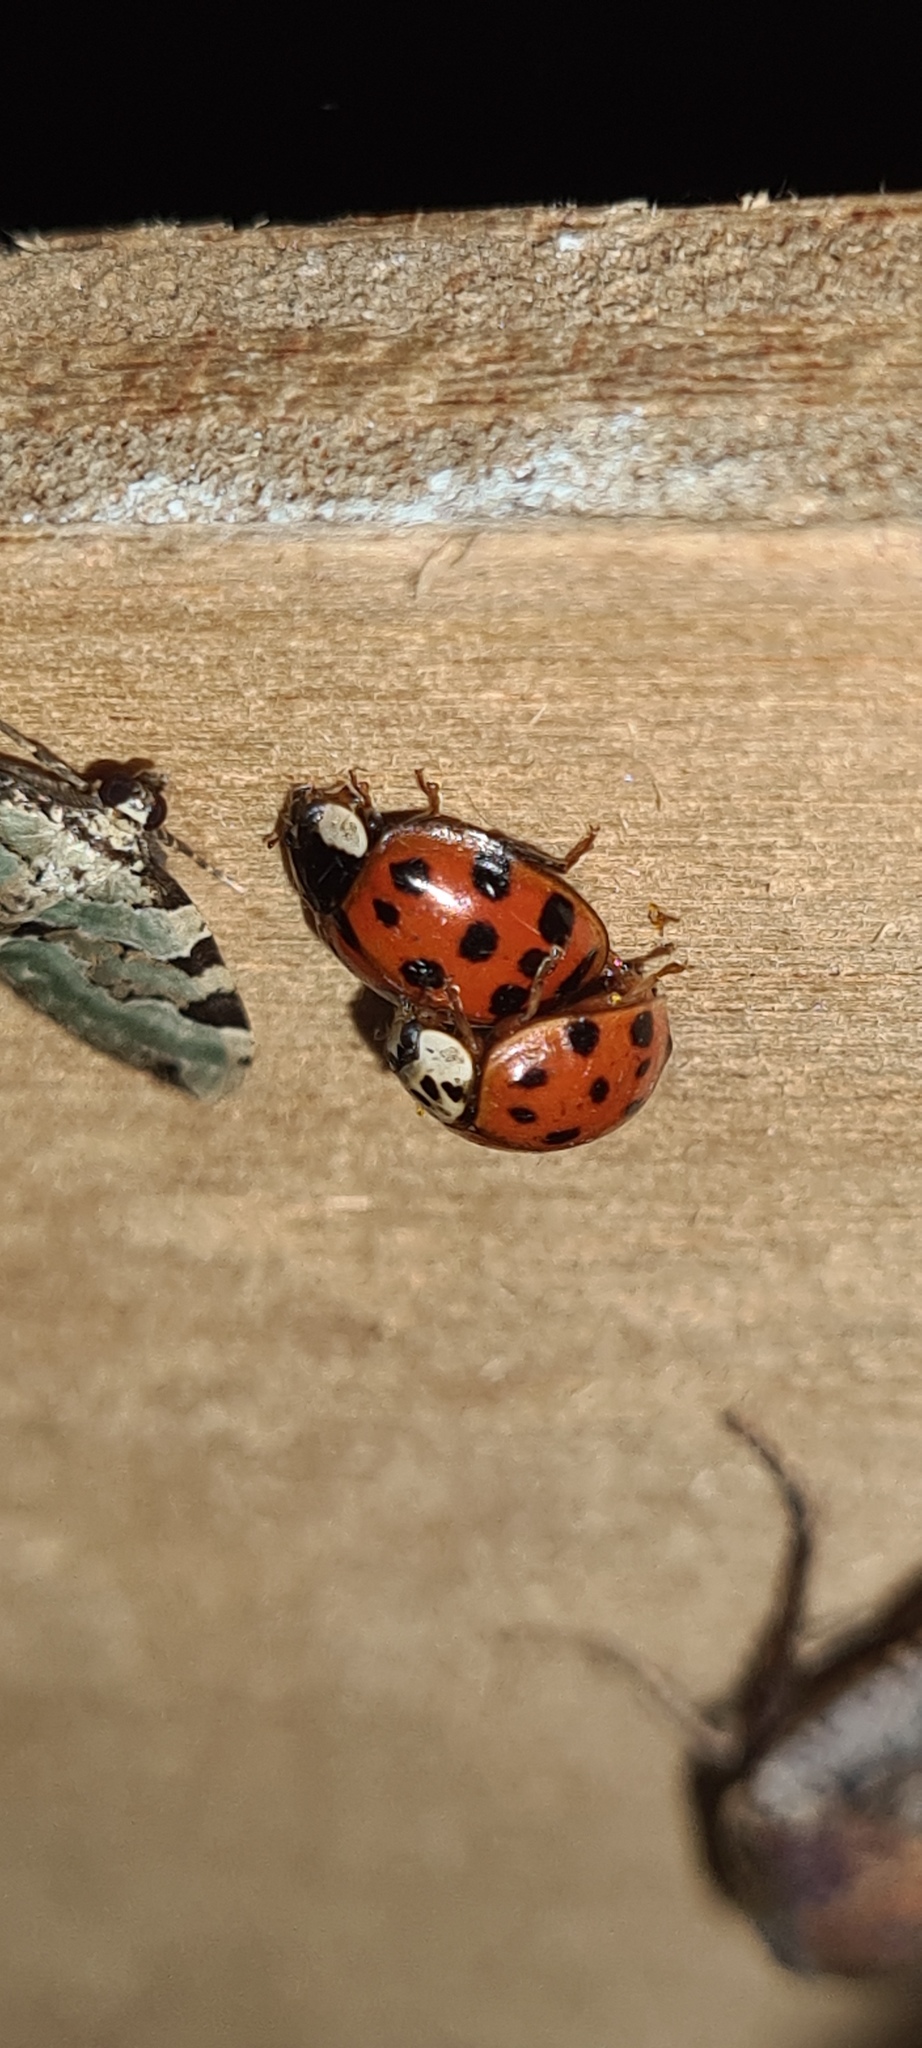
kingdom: Animalia
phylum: Arthropoda
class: Insecta
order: Coleoptera
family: Coccinellidae
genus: Harmonia
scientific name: Harmonia axyridis
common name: Harlequin ladybird
